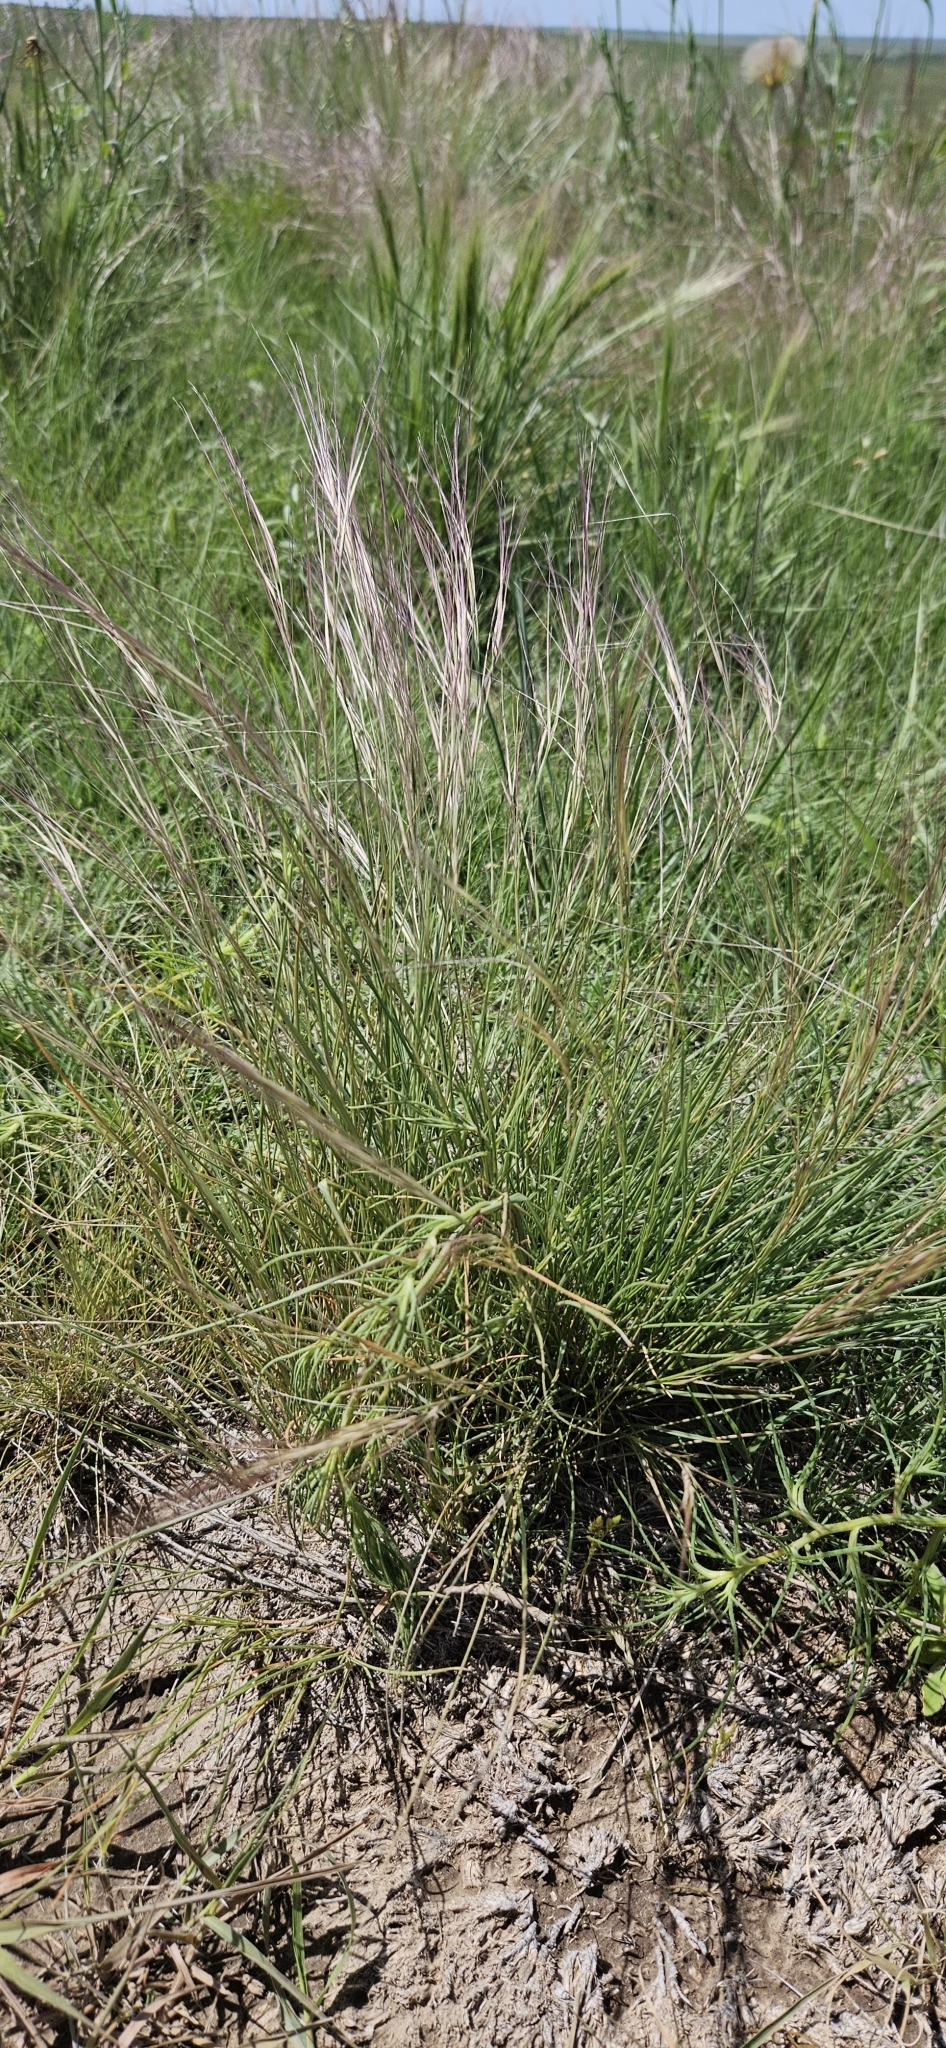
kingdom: Plantae
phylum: Tracheophyta
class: Liliopsida
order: Poales
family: Poaceae
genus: Aristida
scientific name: Aristida purpurea
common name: Purple threeawn
